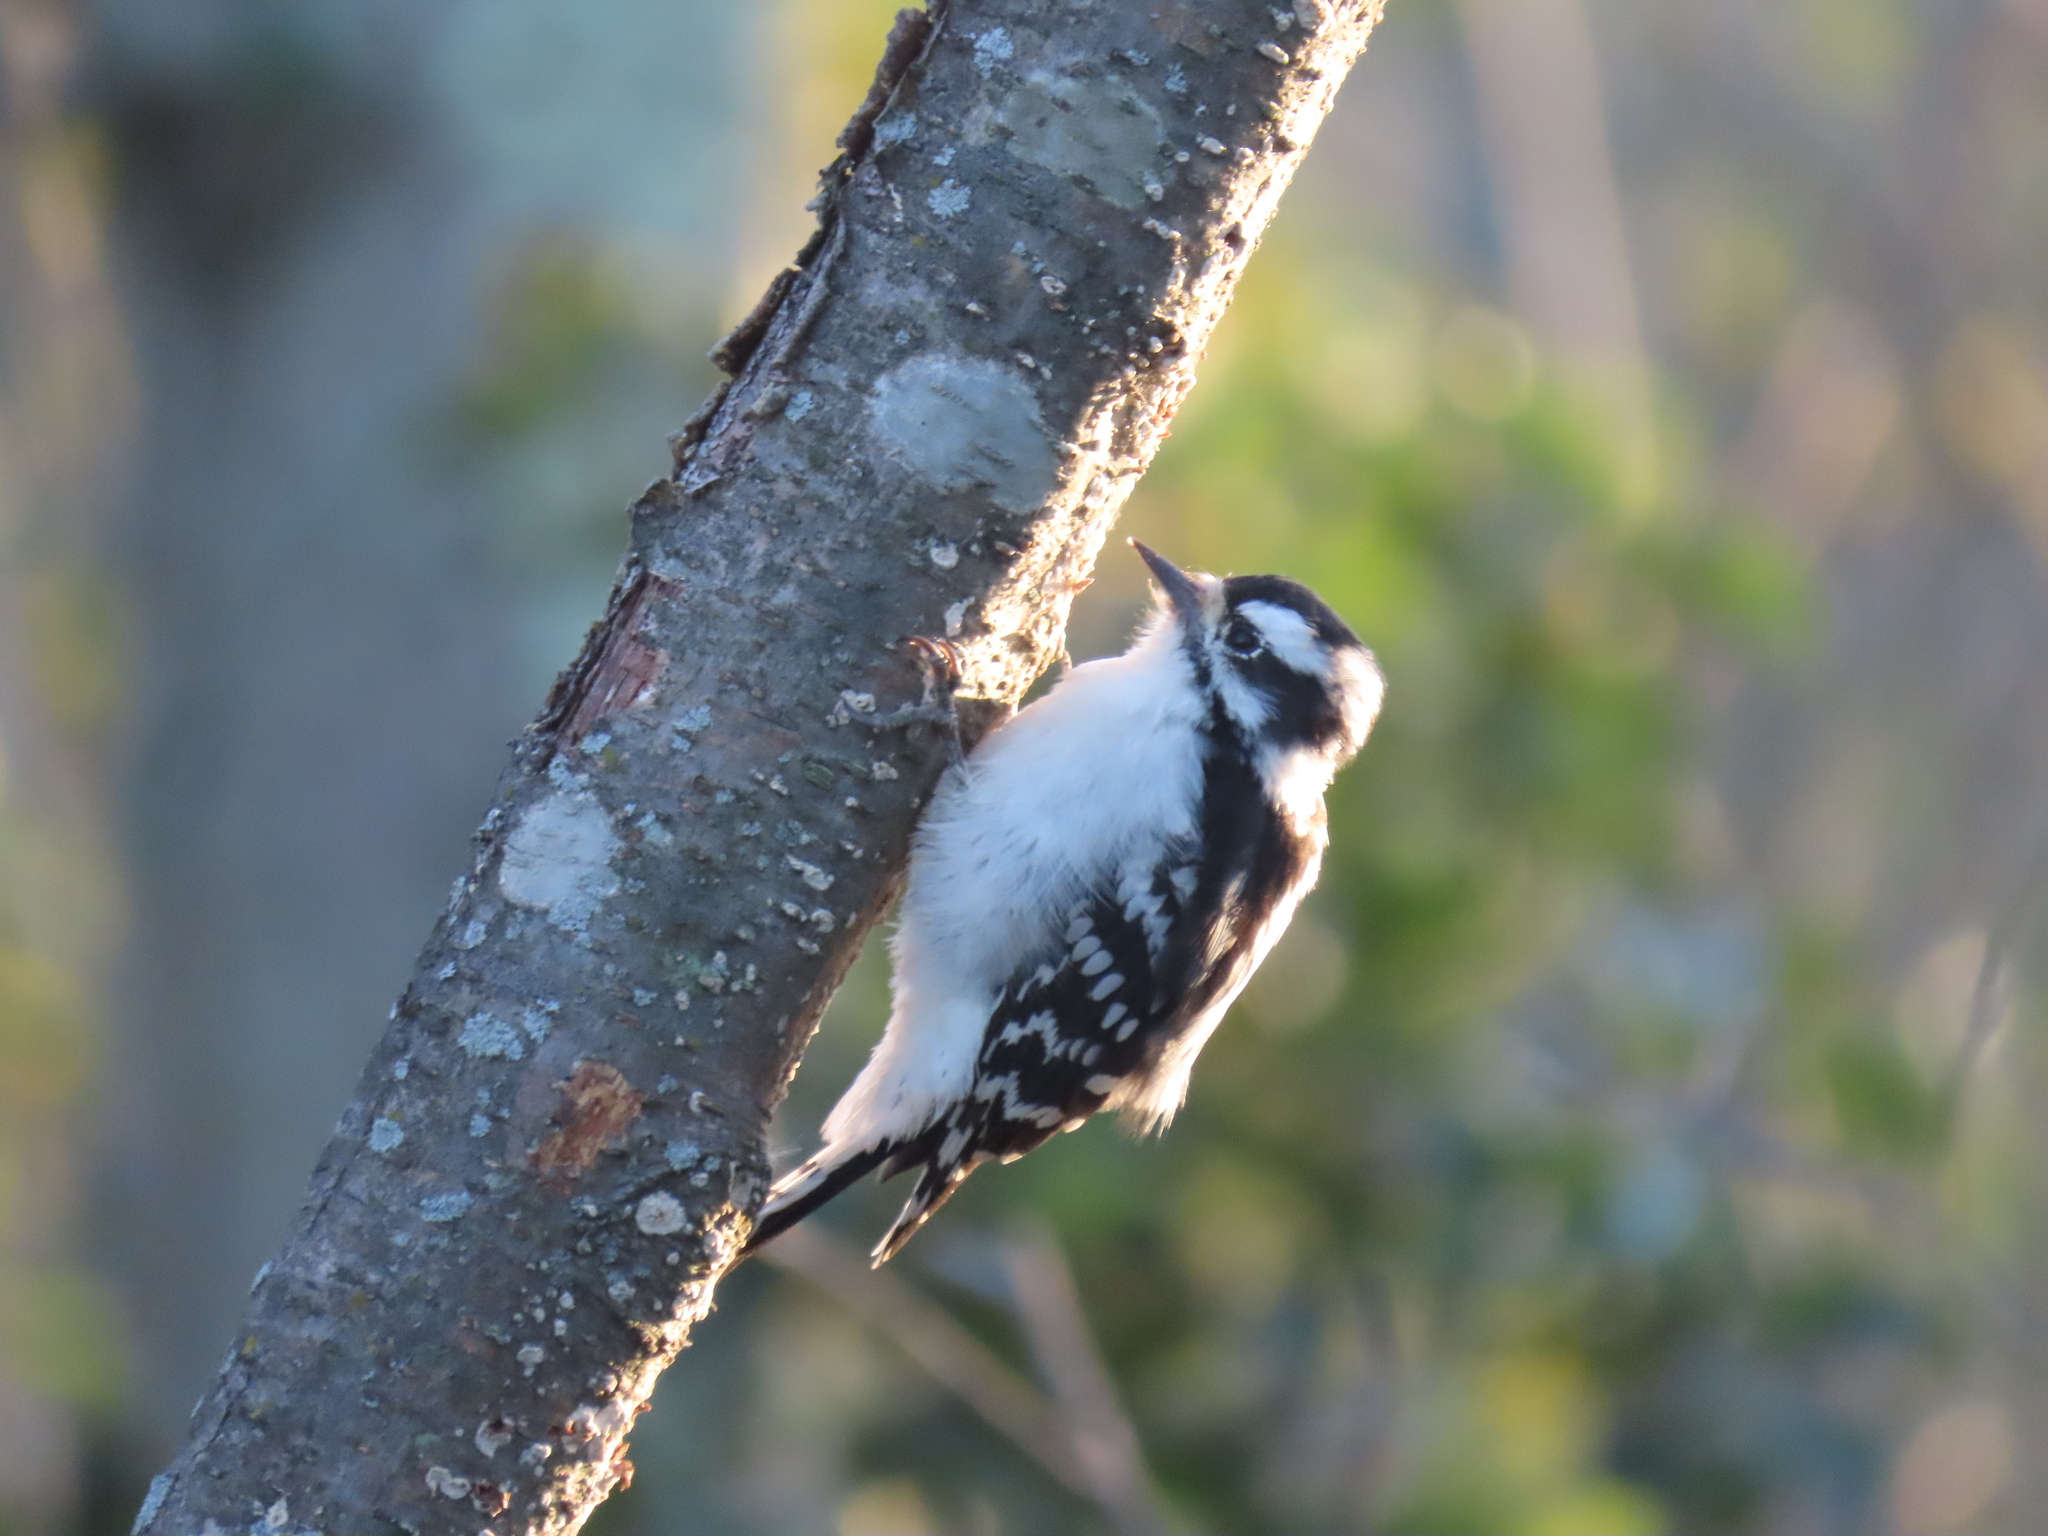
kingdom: Animalia
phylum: Chordata
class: Aves
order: Piciformes
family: Picidae
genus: Dryobates
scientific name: Dryobates pubescens
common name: Downy woodpecker
